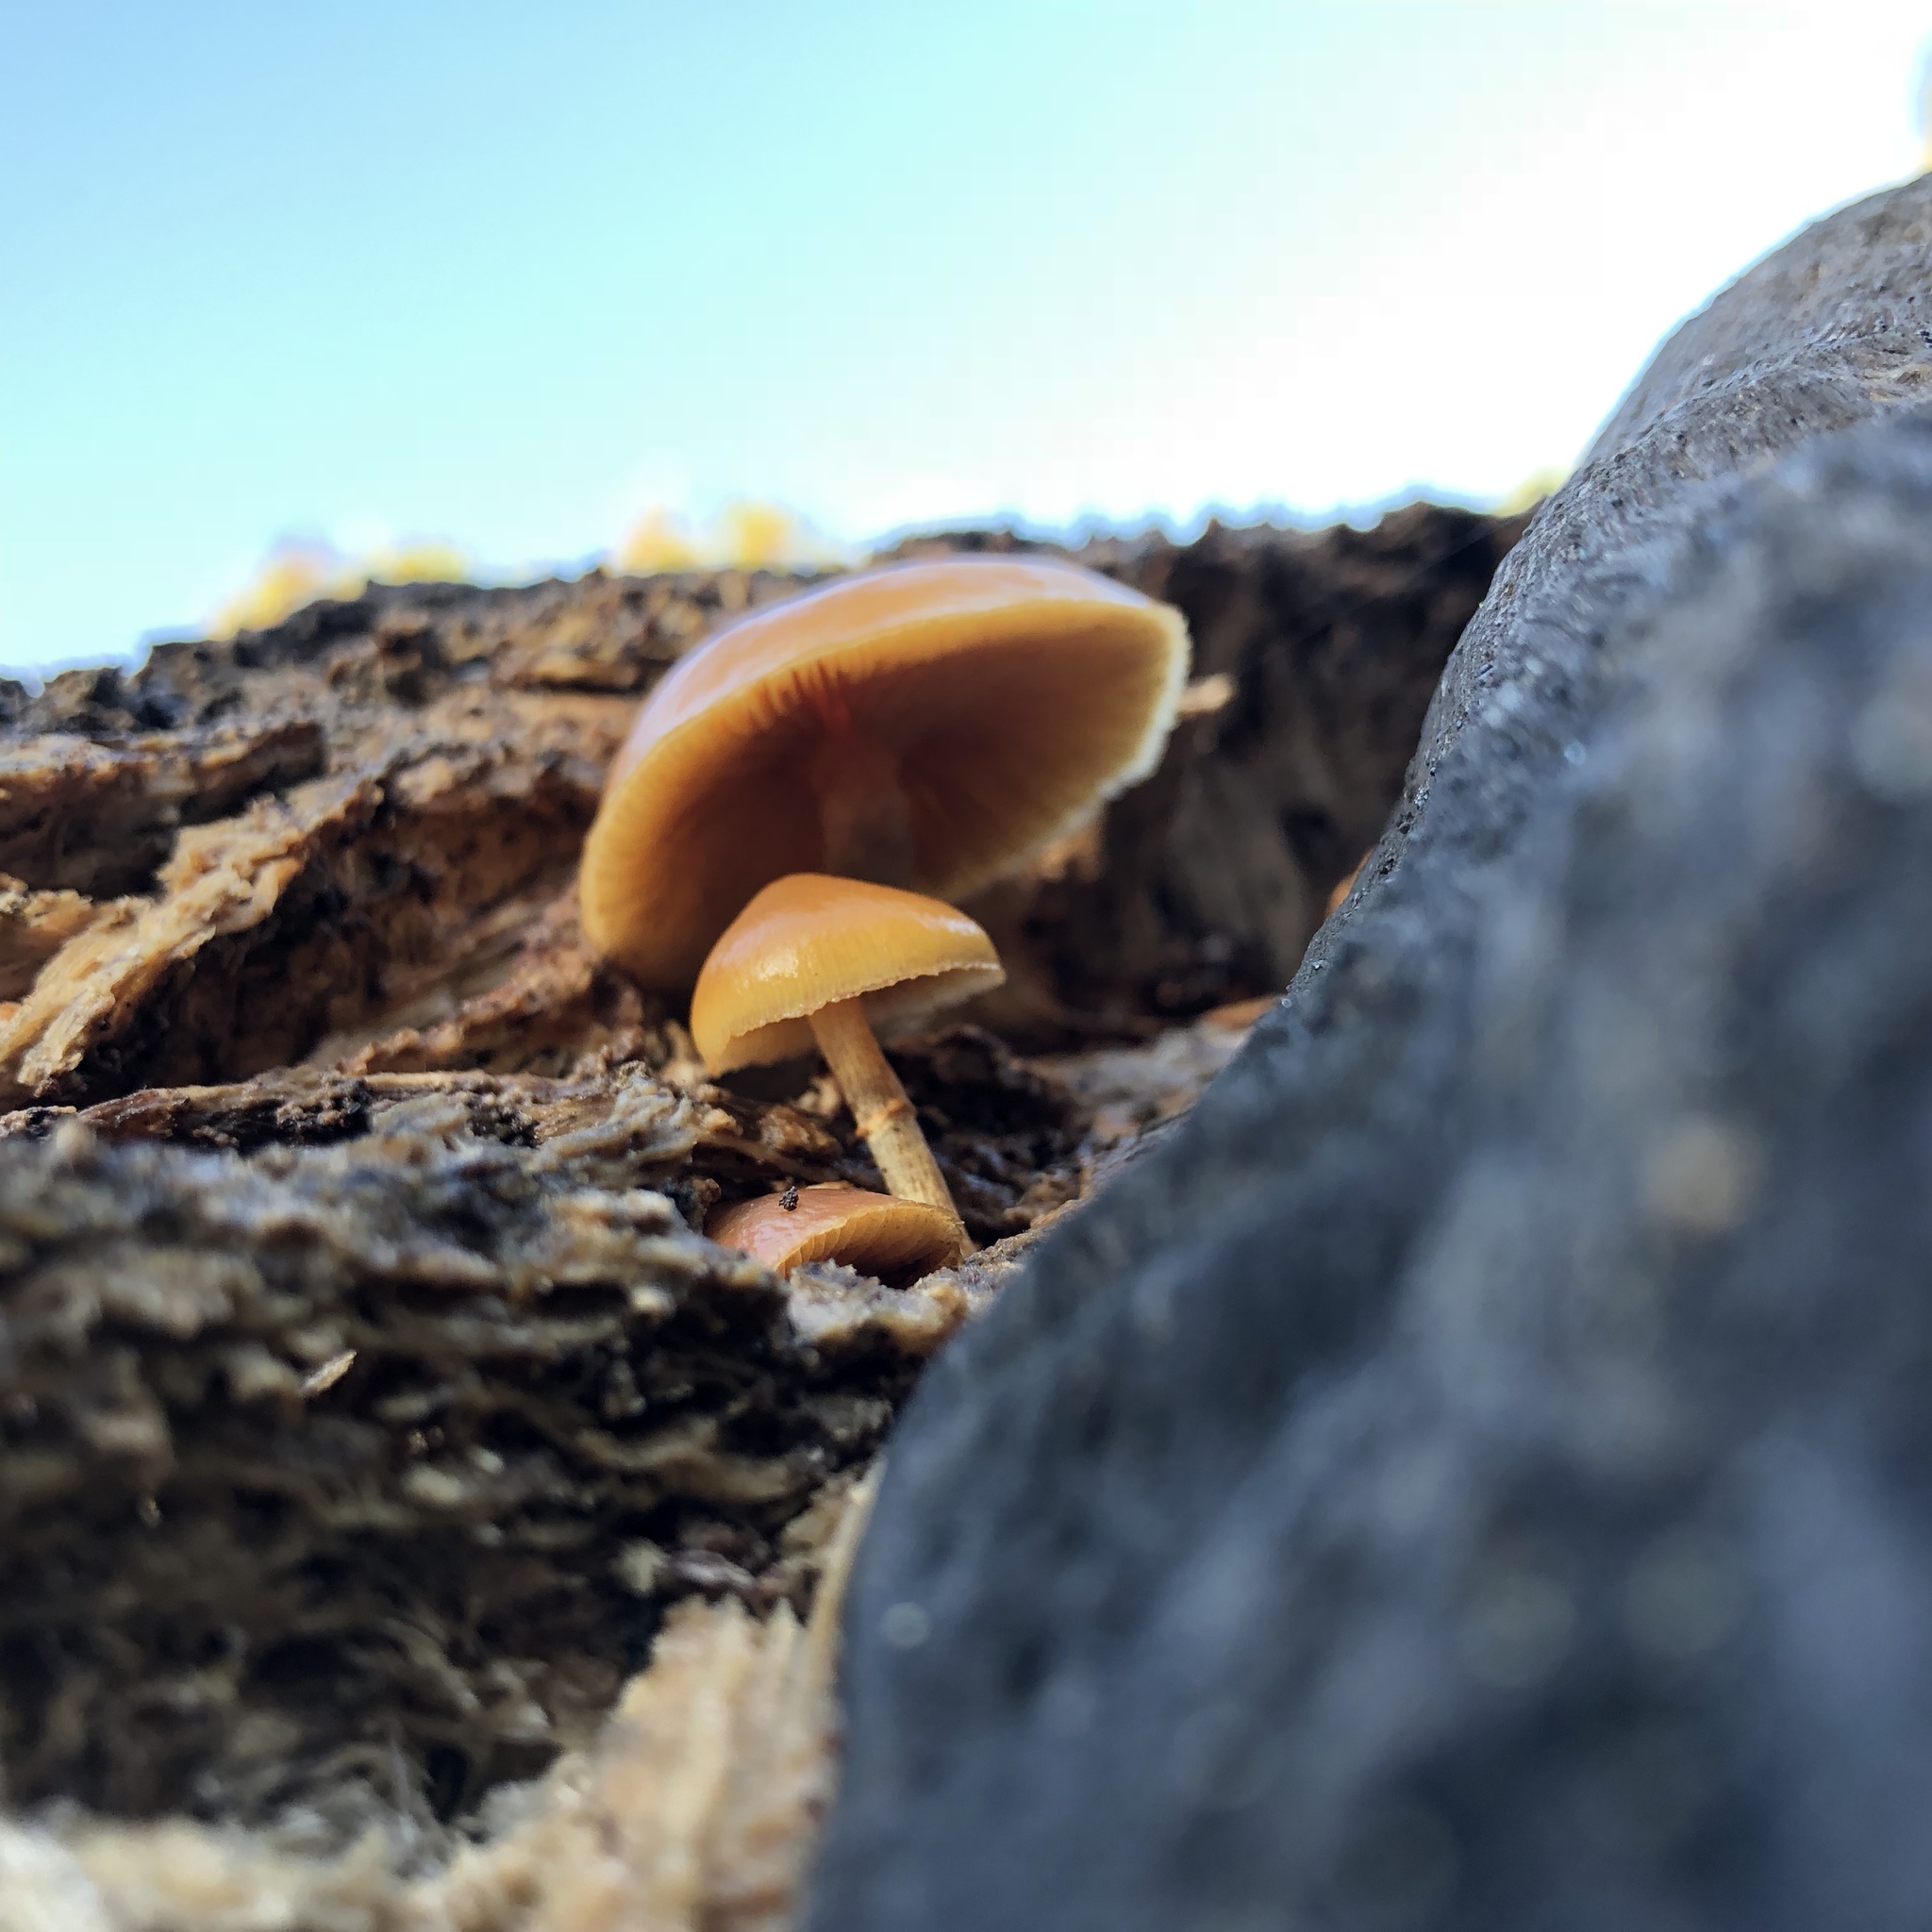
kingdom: Fungi
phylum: Basidiomycota
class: Agaricomycetes
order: Agaricales
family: Hymenogastraceae
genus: Galerina
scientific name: Galerina marginata
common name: Funeral bell
